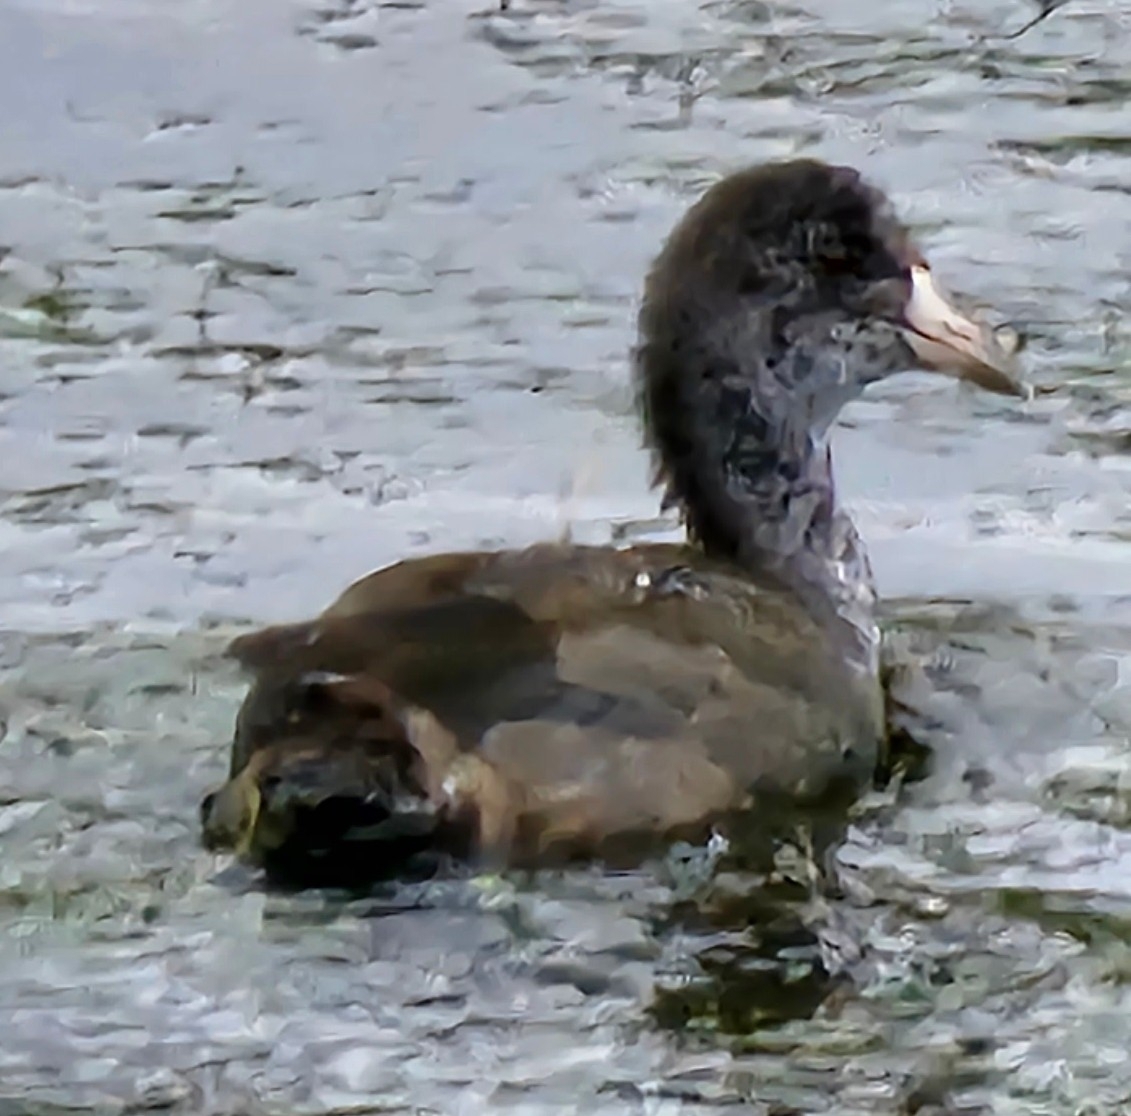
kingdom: Animalia
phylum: Chordata
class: Aves
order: Gruiformes
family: Rallidae
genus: Fulica
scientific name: Fulica americana
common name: American coot
